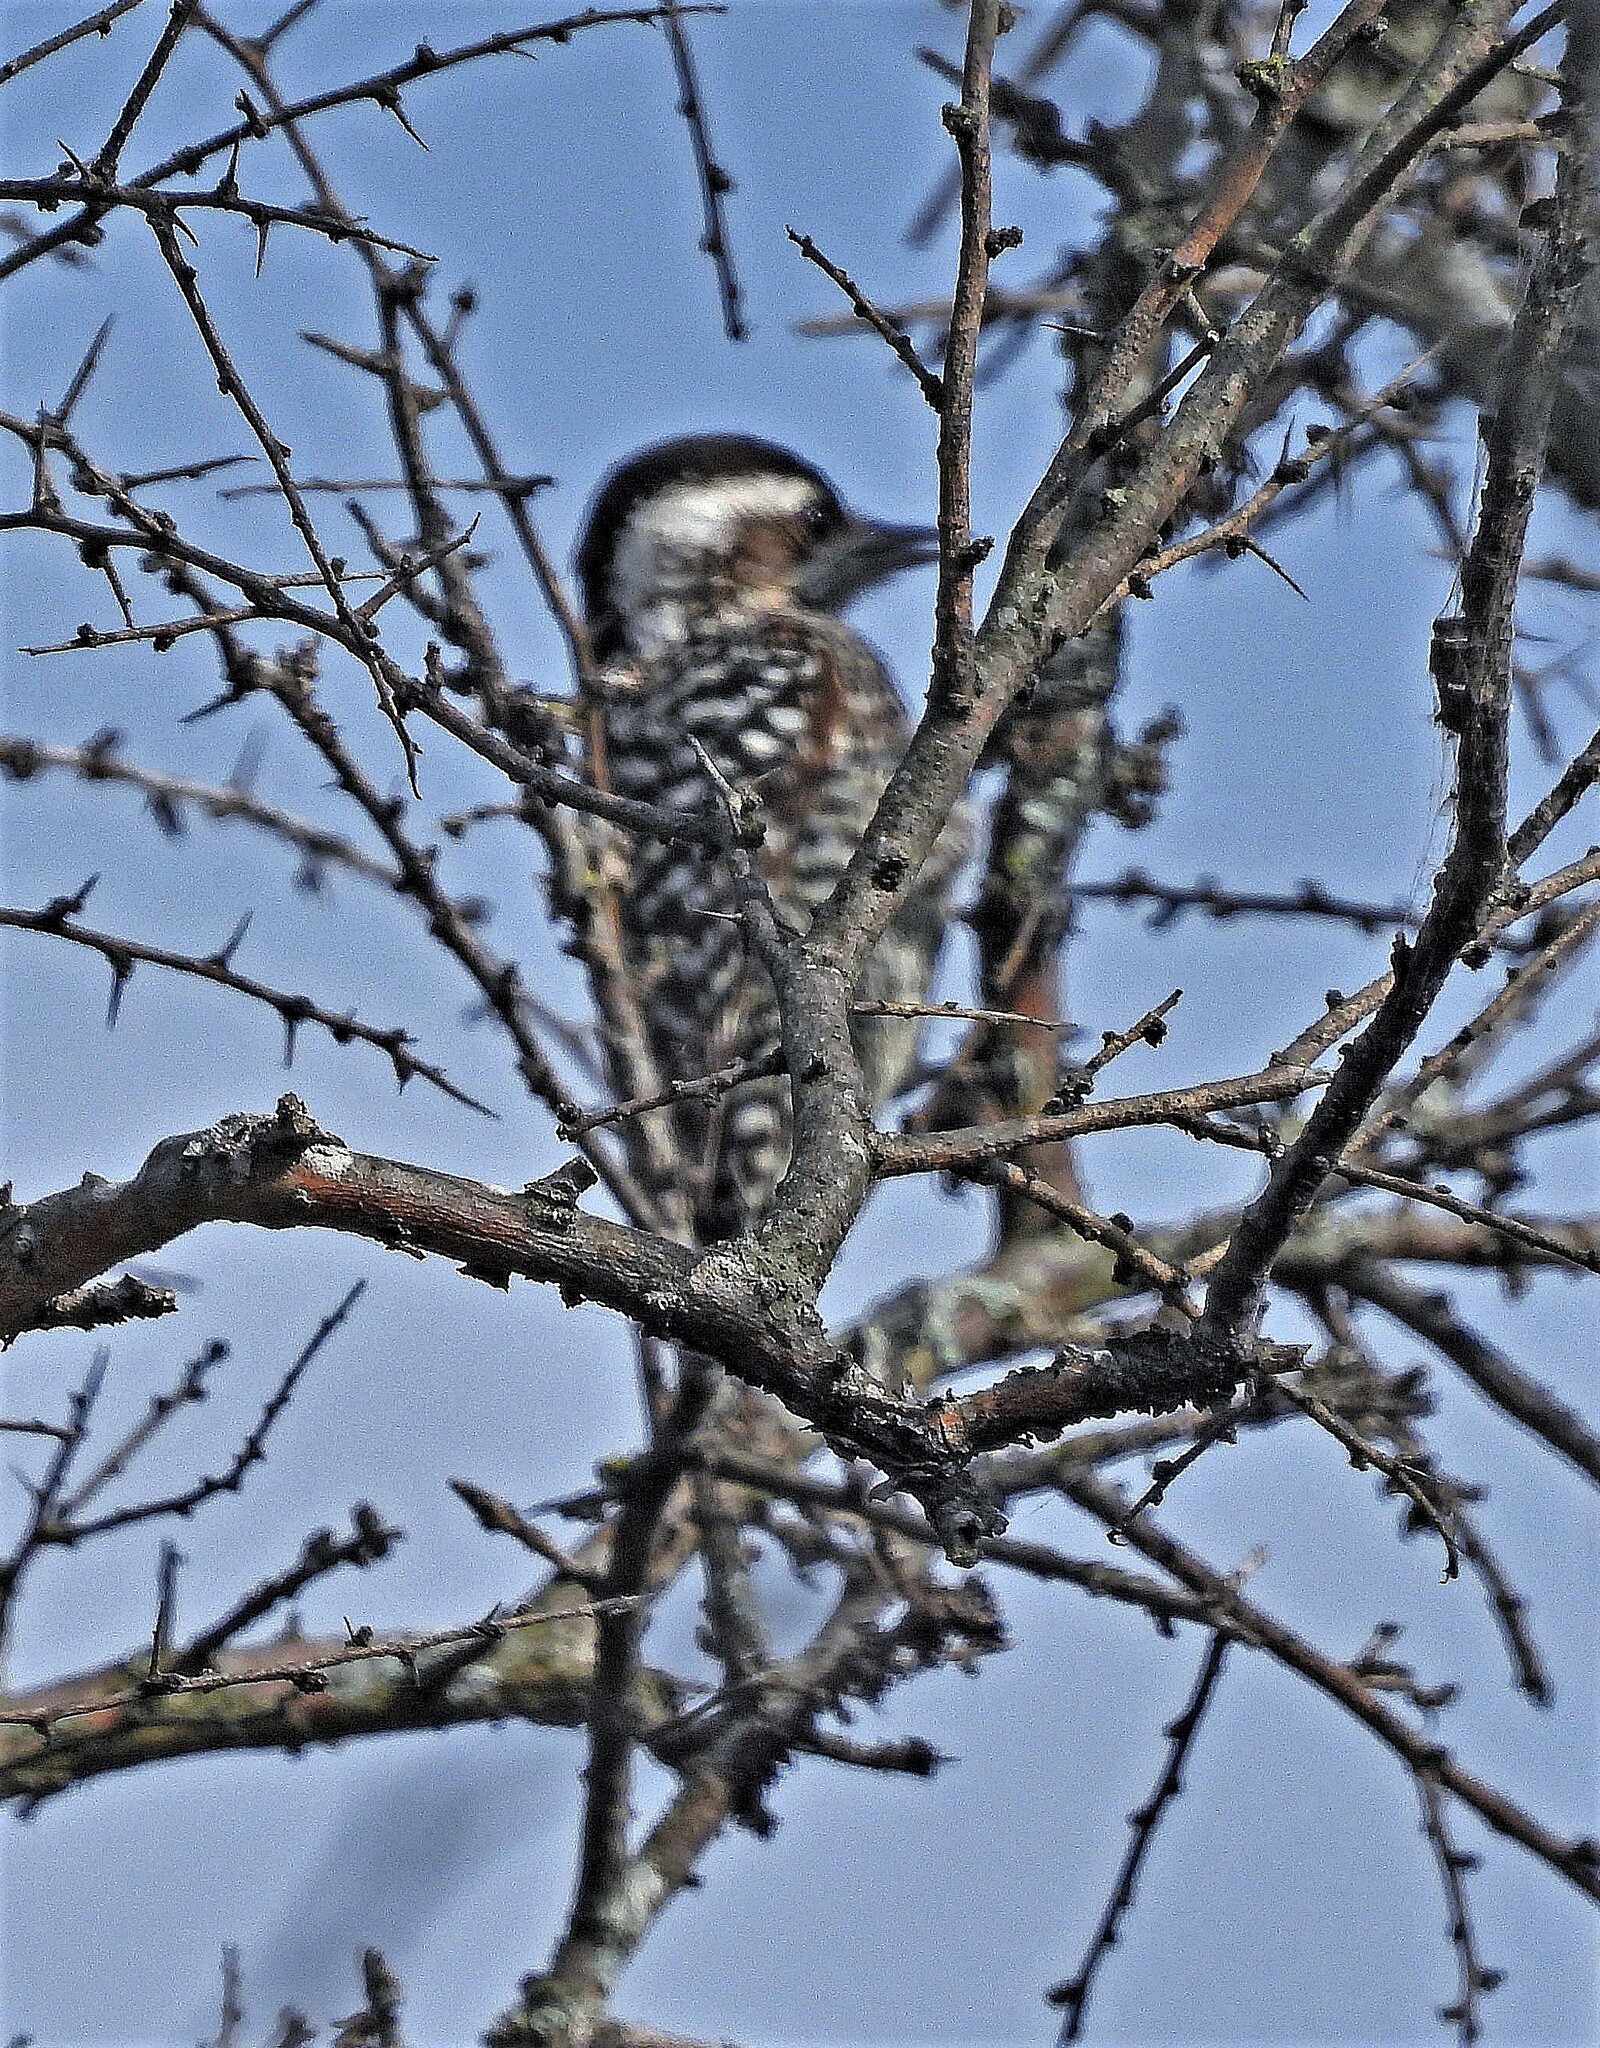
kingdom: Animalia
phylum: Chordata
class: Aves
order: Piciformes
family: Picidae
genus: Veniliornis
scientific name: Veniliornis mixtus
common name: Checkered woodpecker
